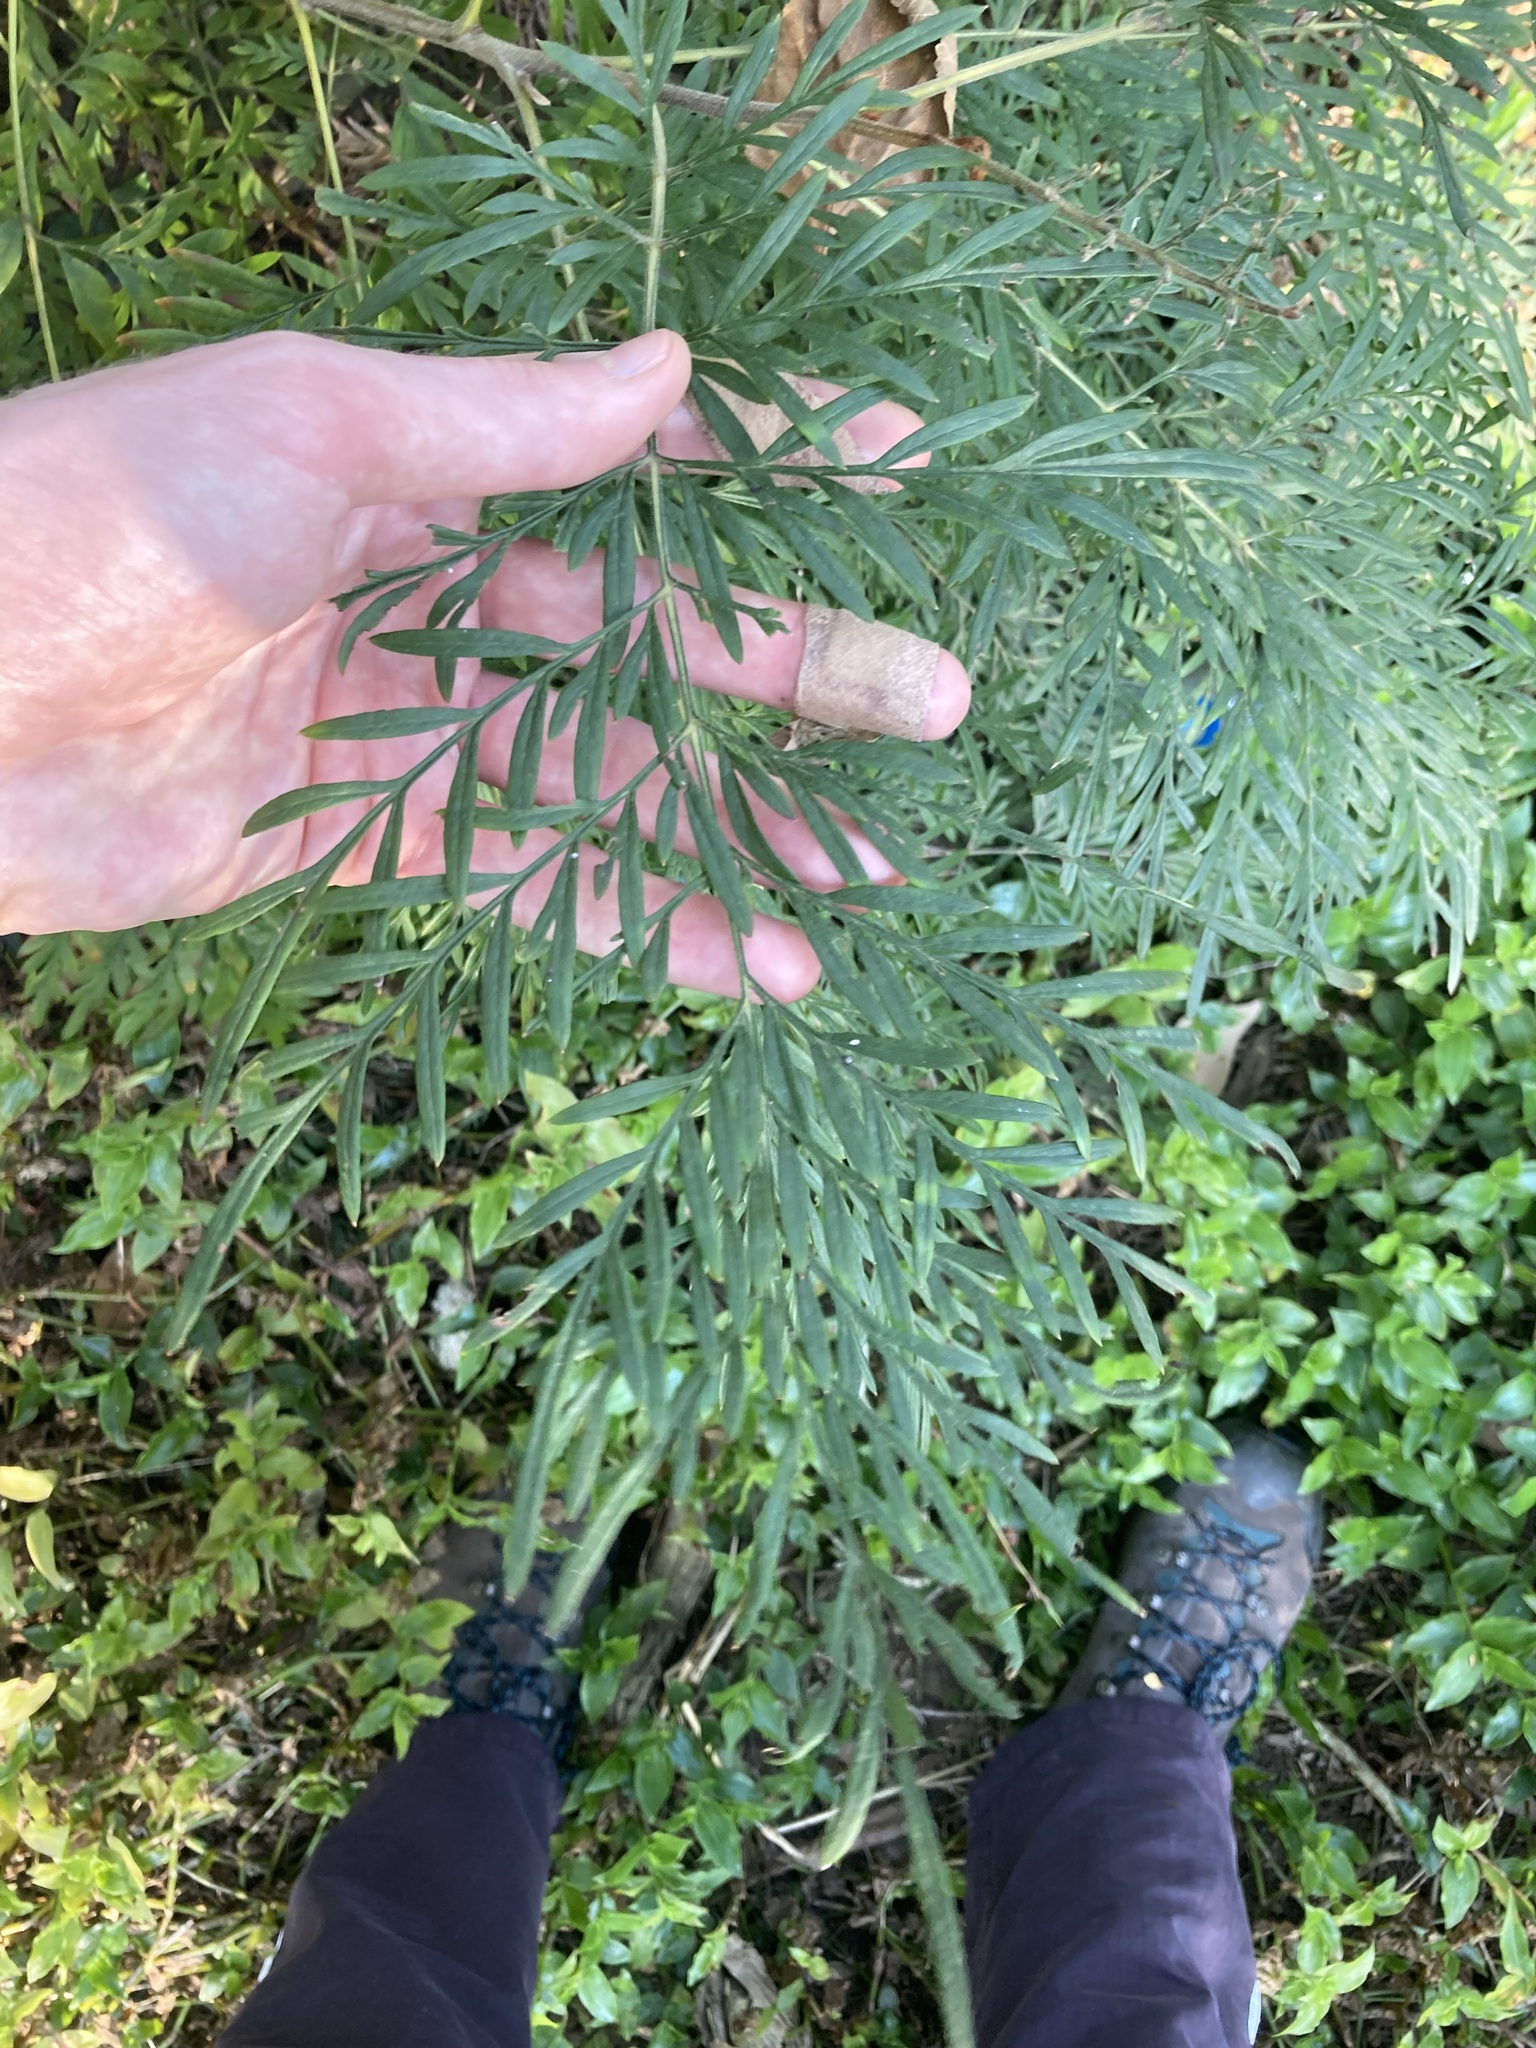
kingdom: Plantae
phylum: Tracheophyta
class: Magnoliopsida
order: Proteales
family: Proteaceae
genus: Grevillea
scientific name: Grevillea robusta
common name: Silkoak
